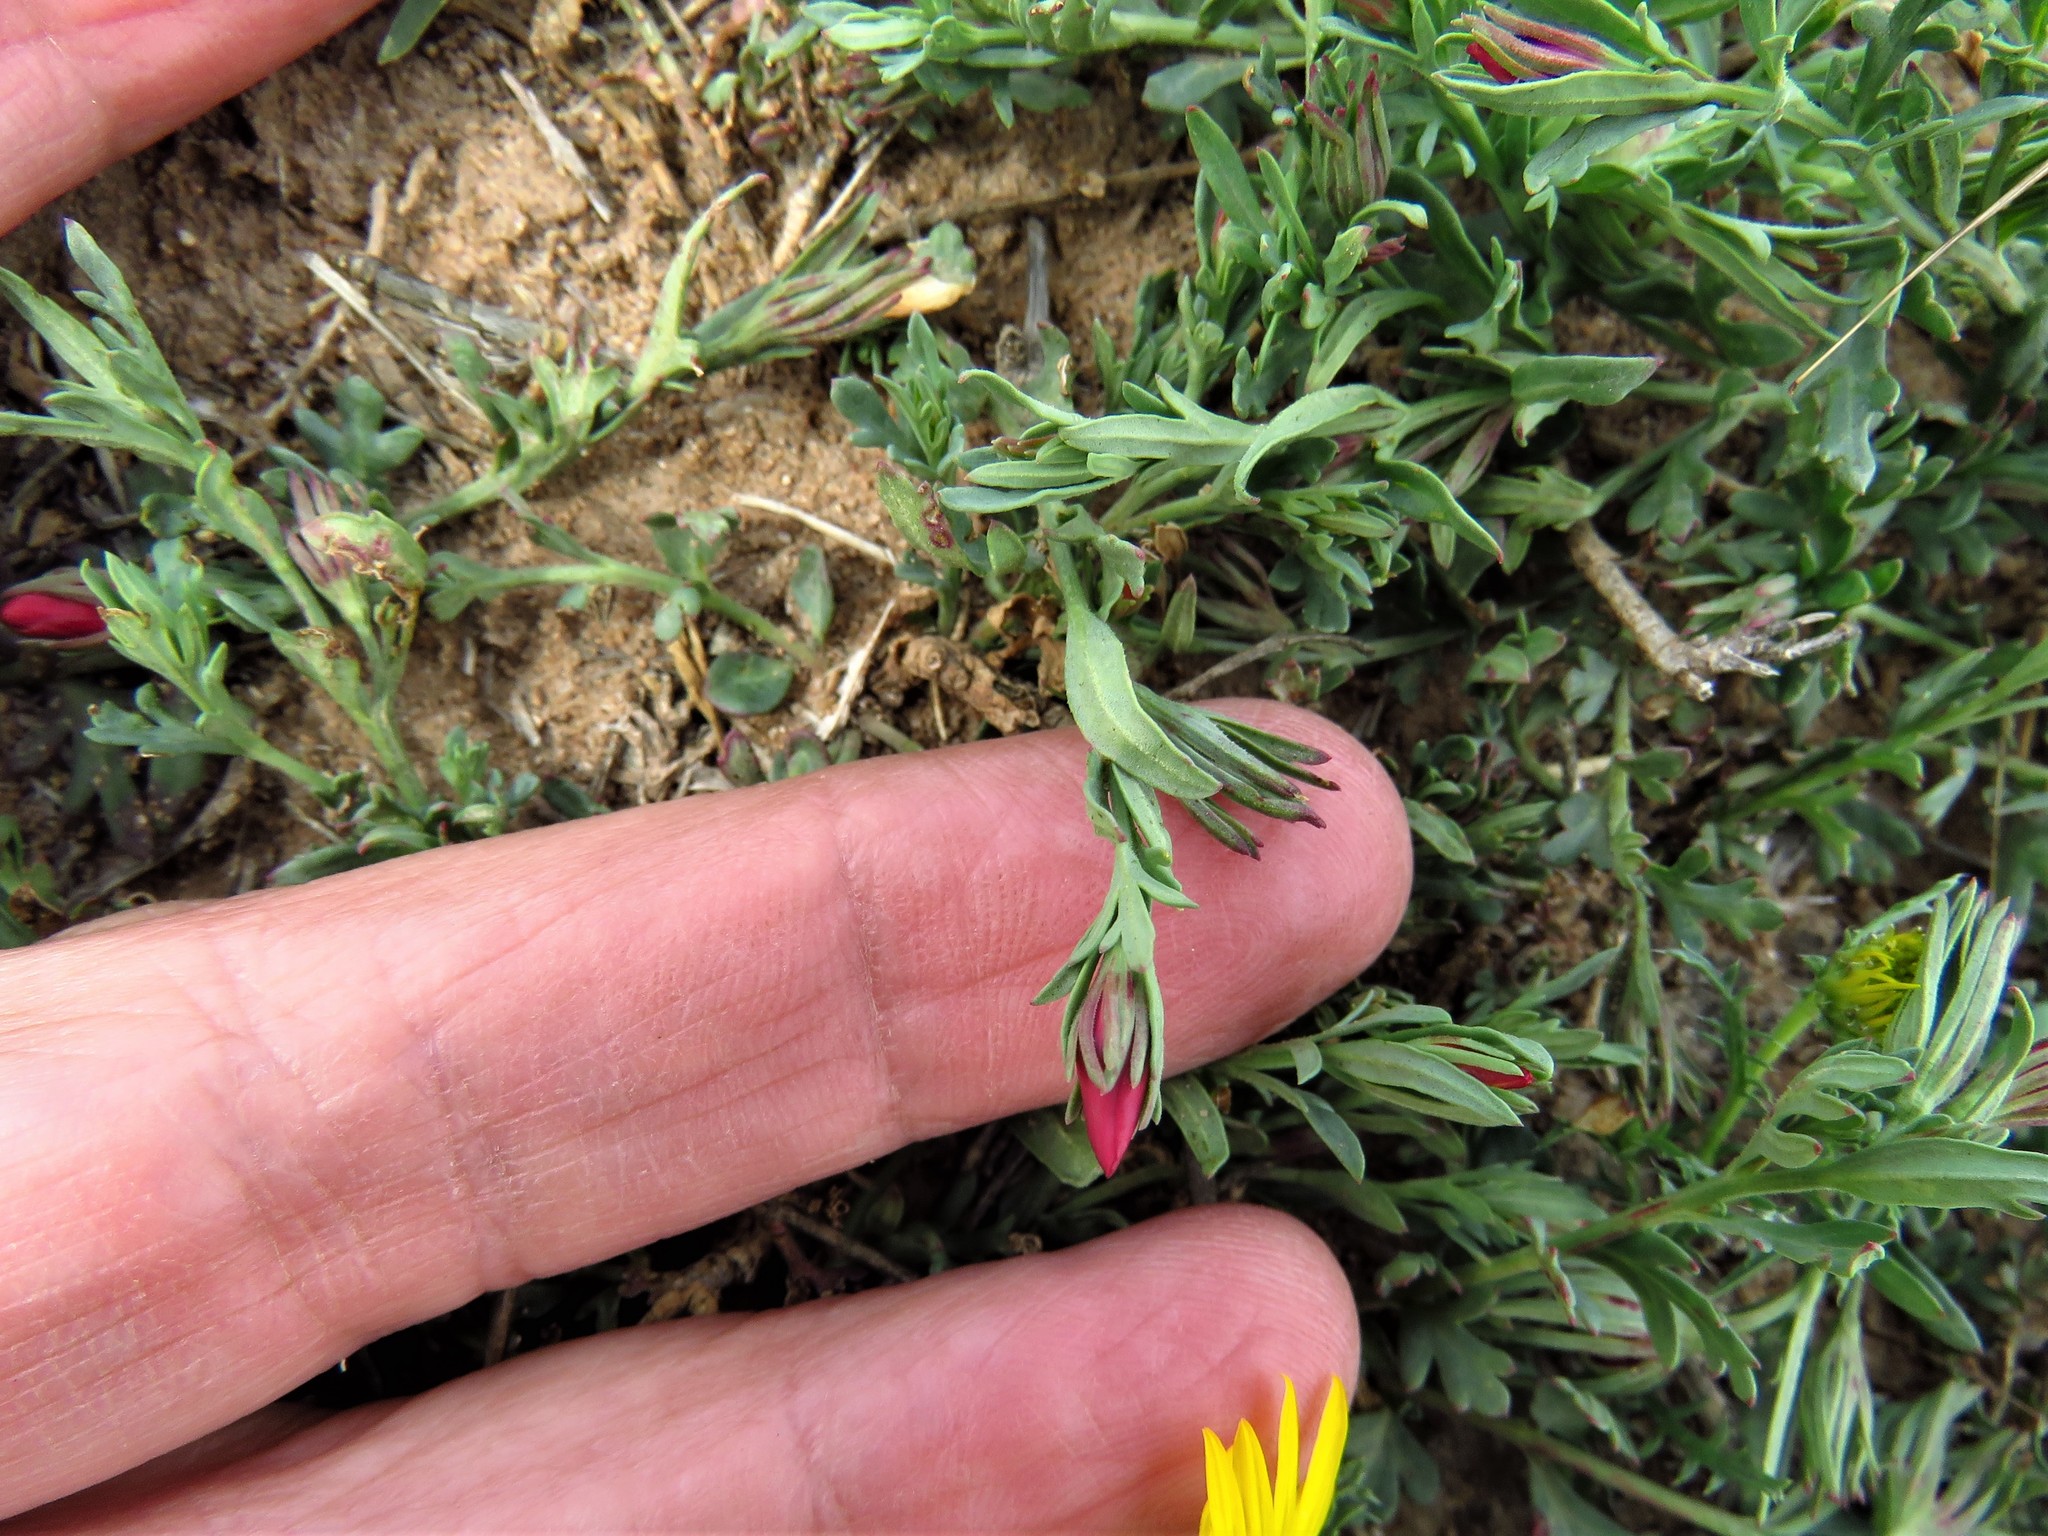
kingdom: Plantae
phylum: Tracheophyta
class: Magnoliopsida
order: Lamiales
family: Oleaceae
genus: Menodora
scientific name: Menodora heterophylla
